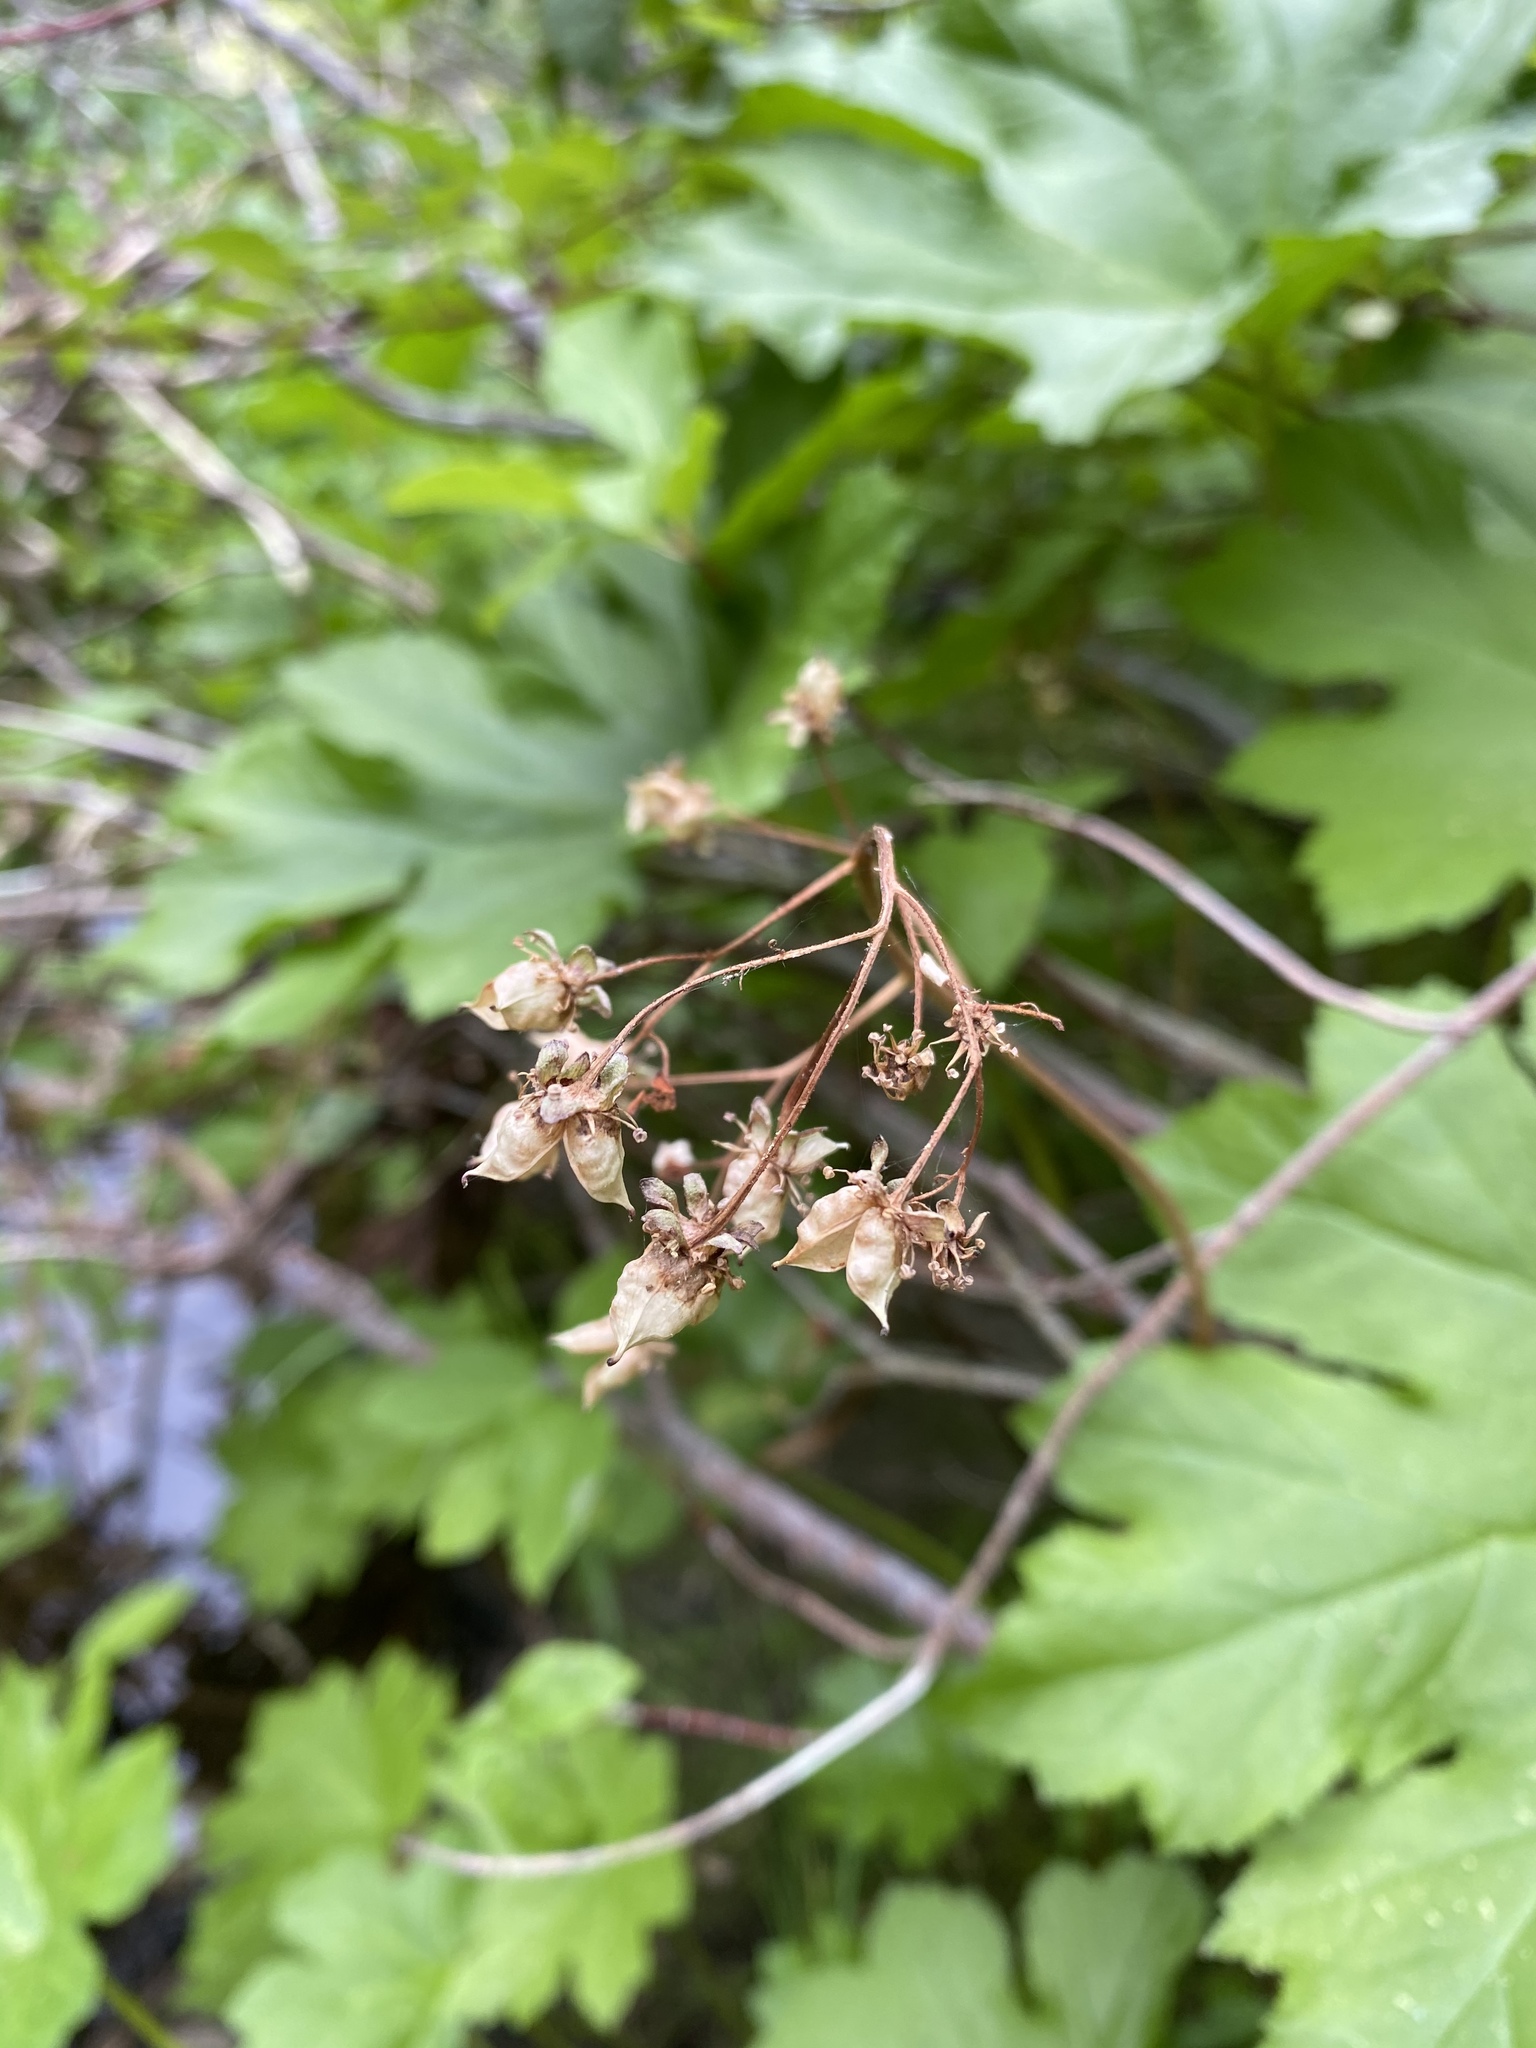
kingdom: Plantae
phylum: Tracheophyta
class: Magnoliopsida
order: Saxifragales
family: Saxifragaceae
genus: Darmera
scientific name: Darmera peltata
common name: Indian-rhubarb
